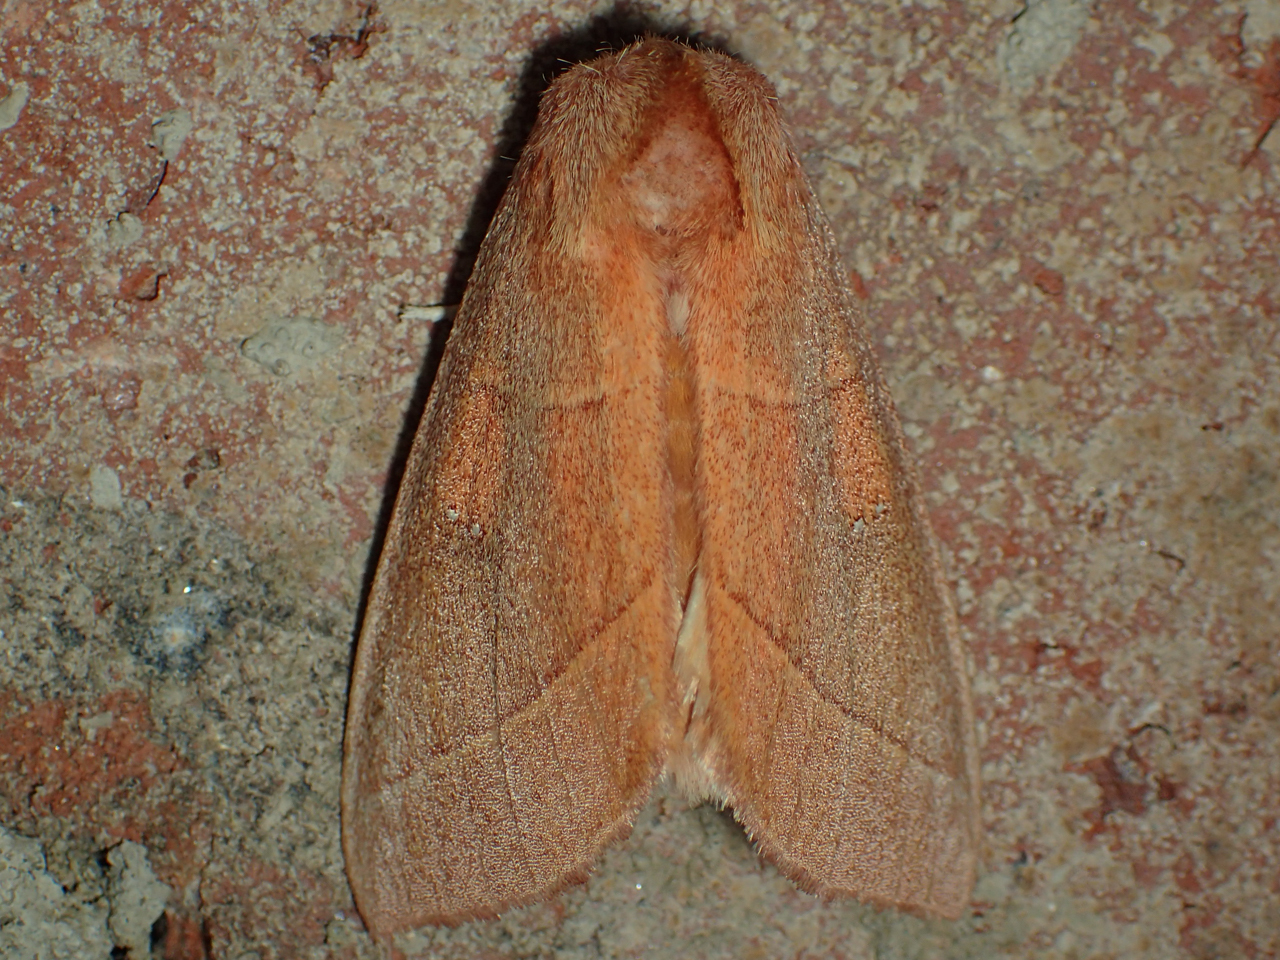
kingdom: Animalia
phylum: Arthropoda
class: Insecta
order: Lepidoptera
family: Notodontidae
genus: Nadata
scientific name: Nadata gibbosa
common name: White-dotted prominent
